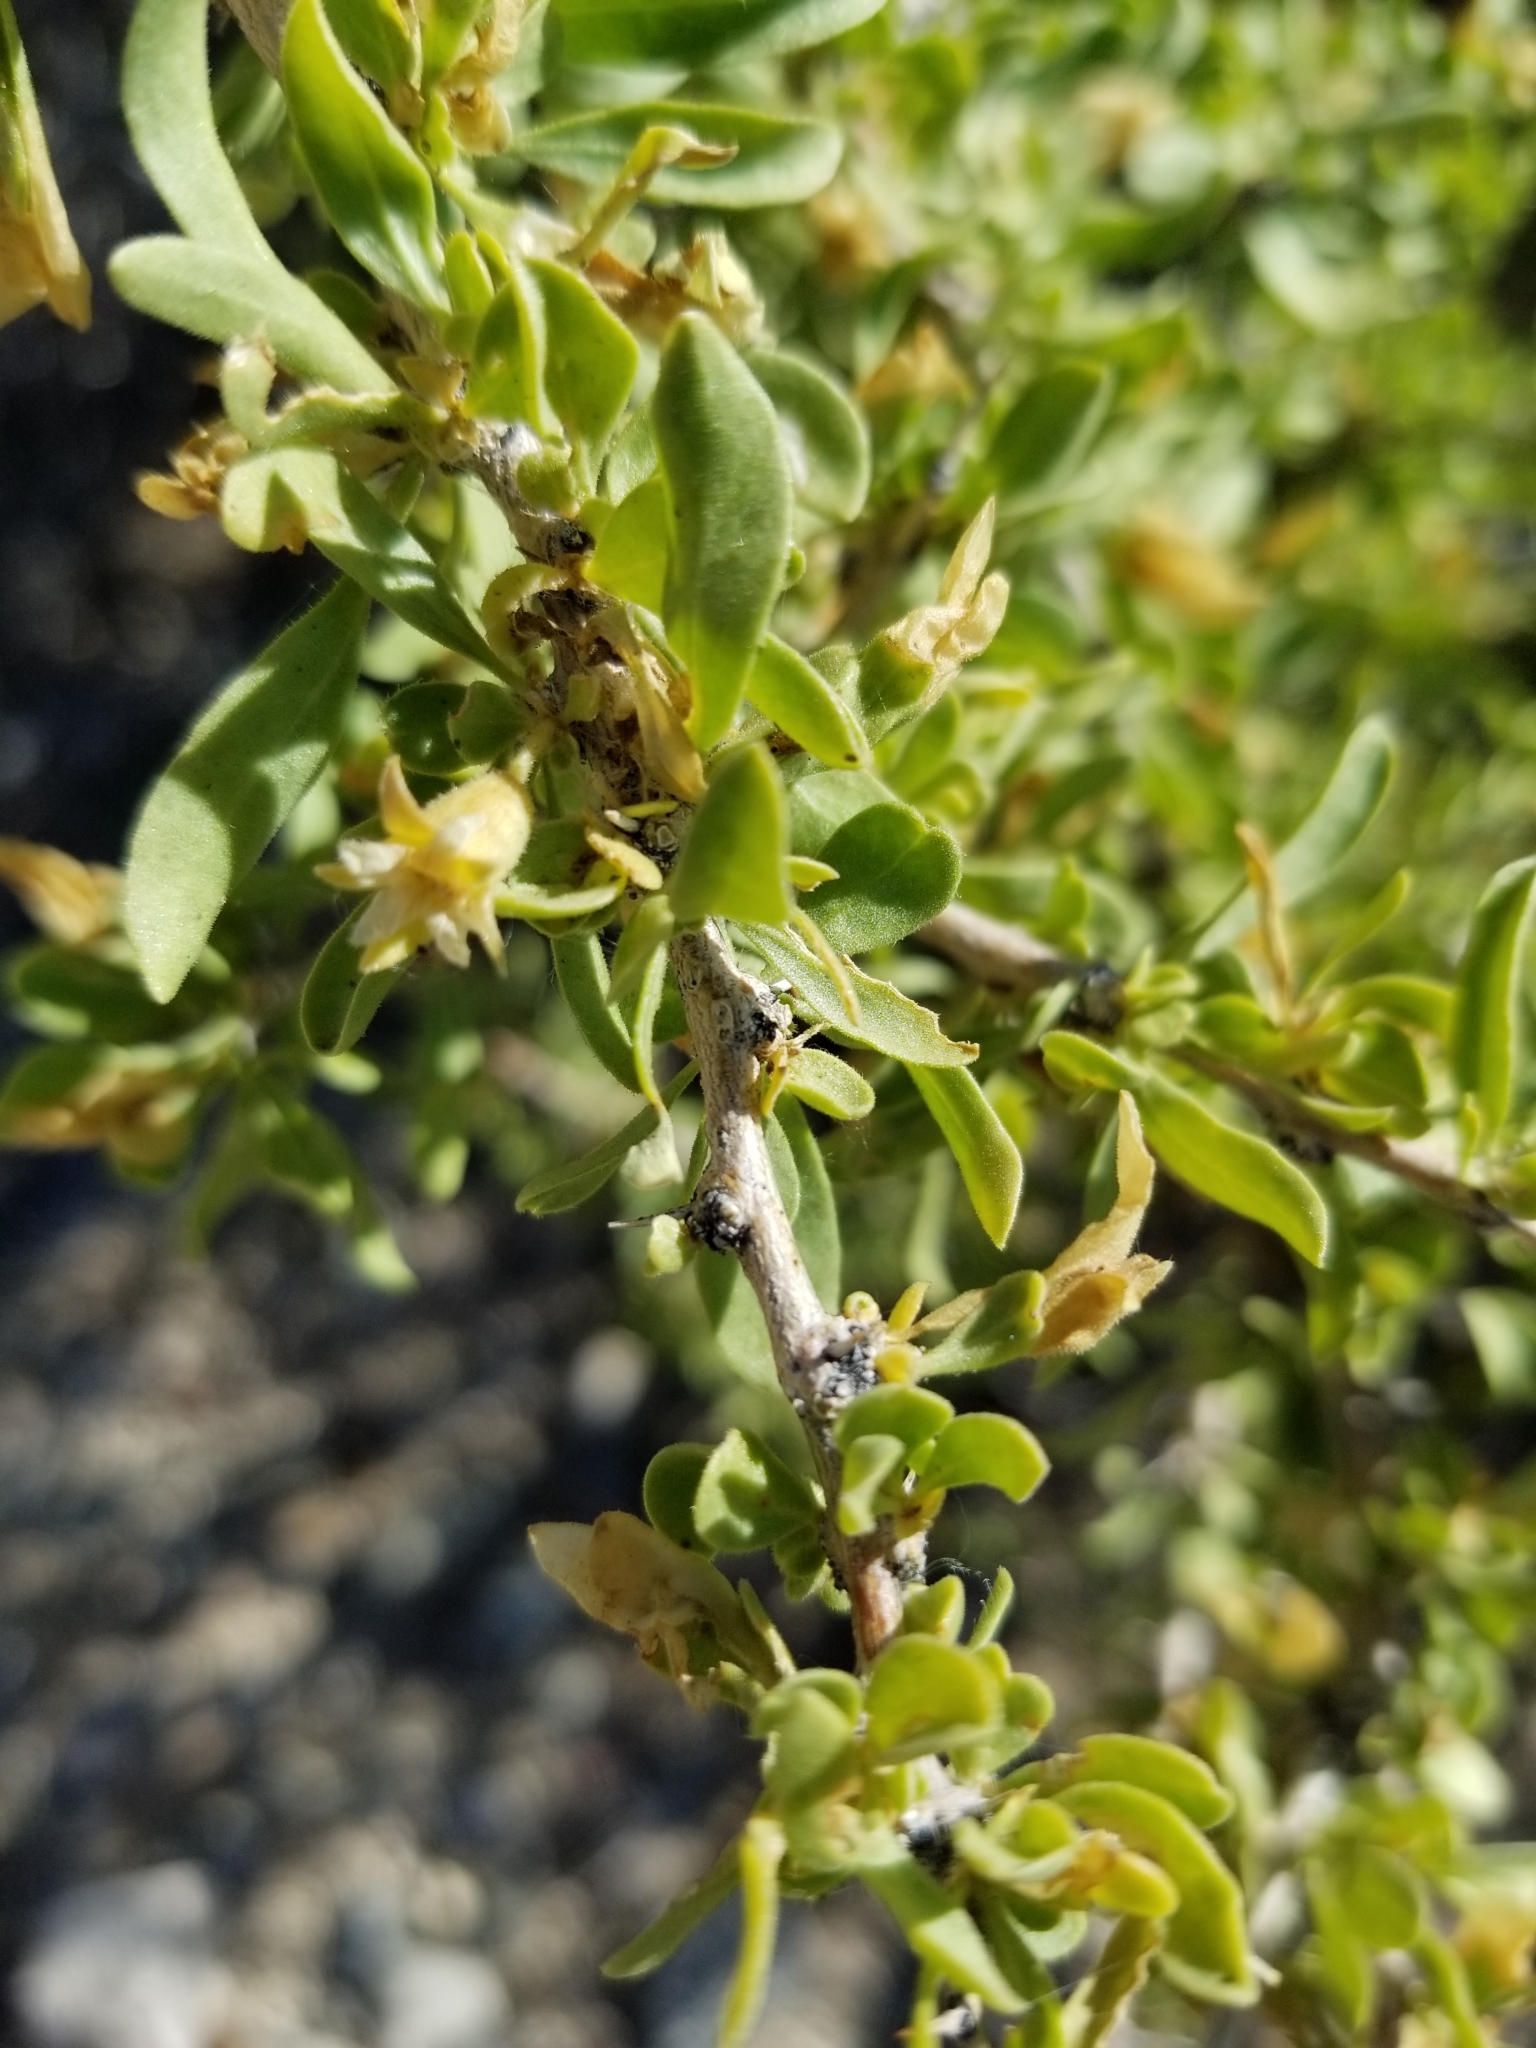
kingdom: Plantae
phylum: Tracheophyta
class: Magnoliopsida
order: Solanales
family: Solanaceae
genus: Lycium
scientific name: Lycium cooperi
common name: Peachthorn
